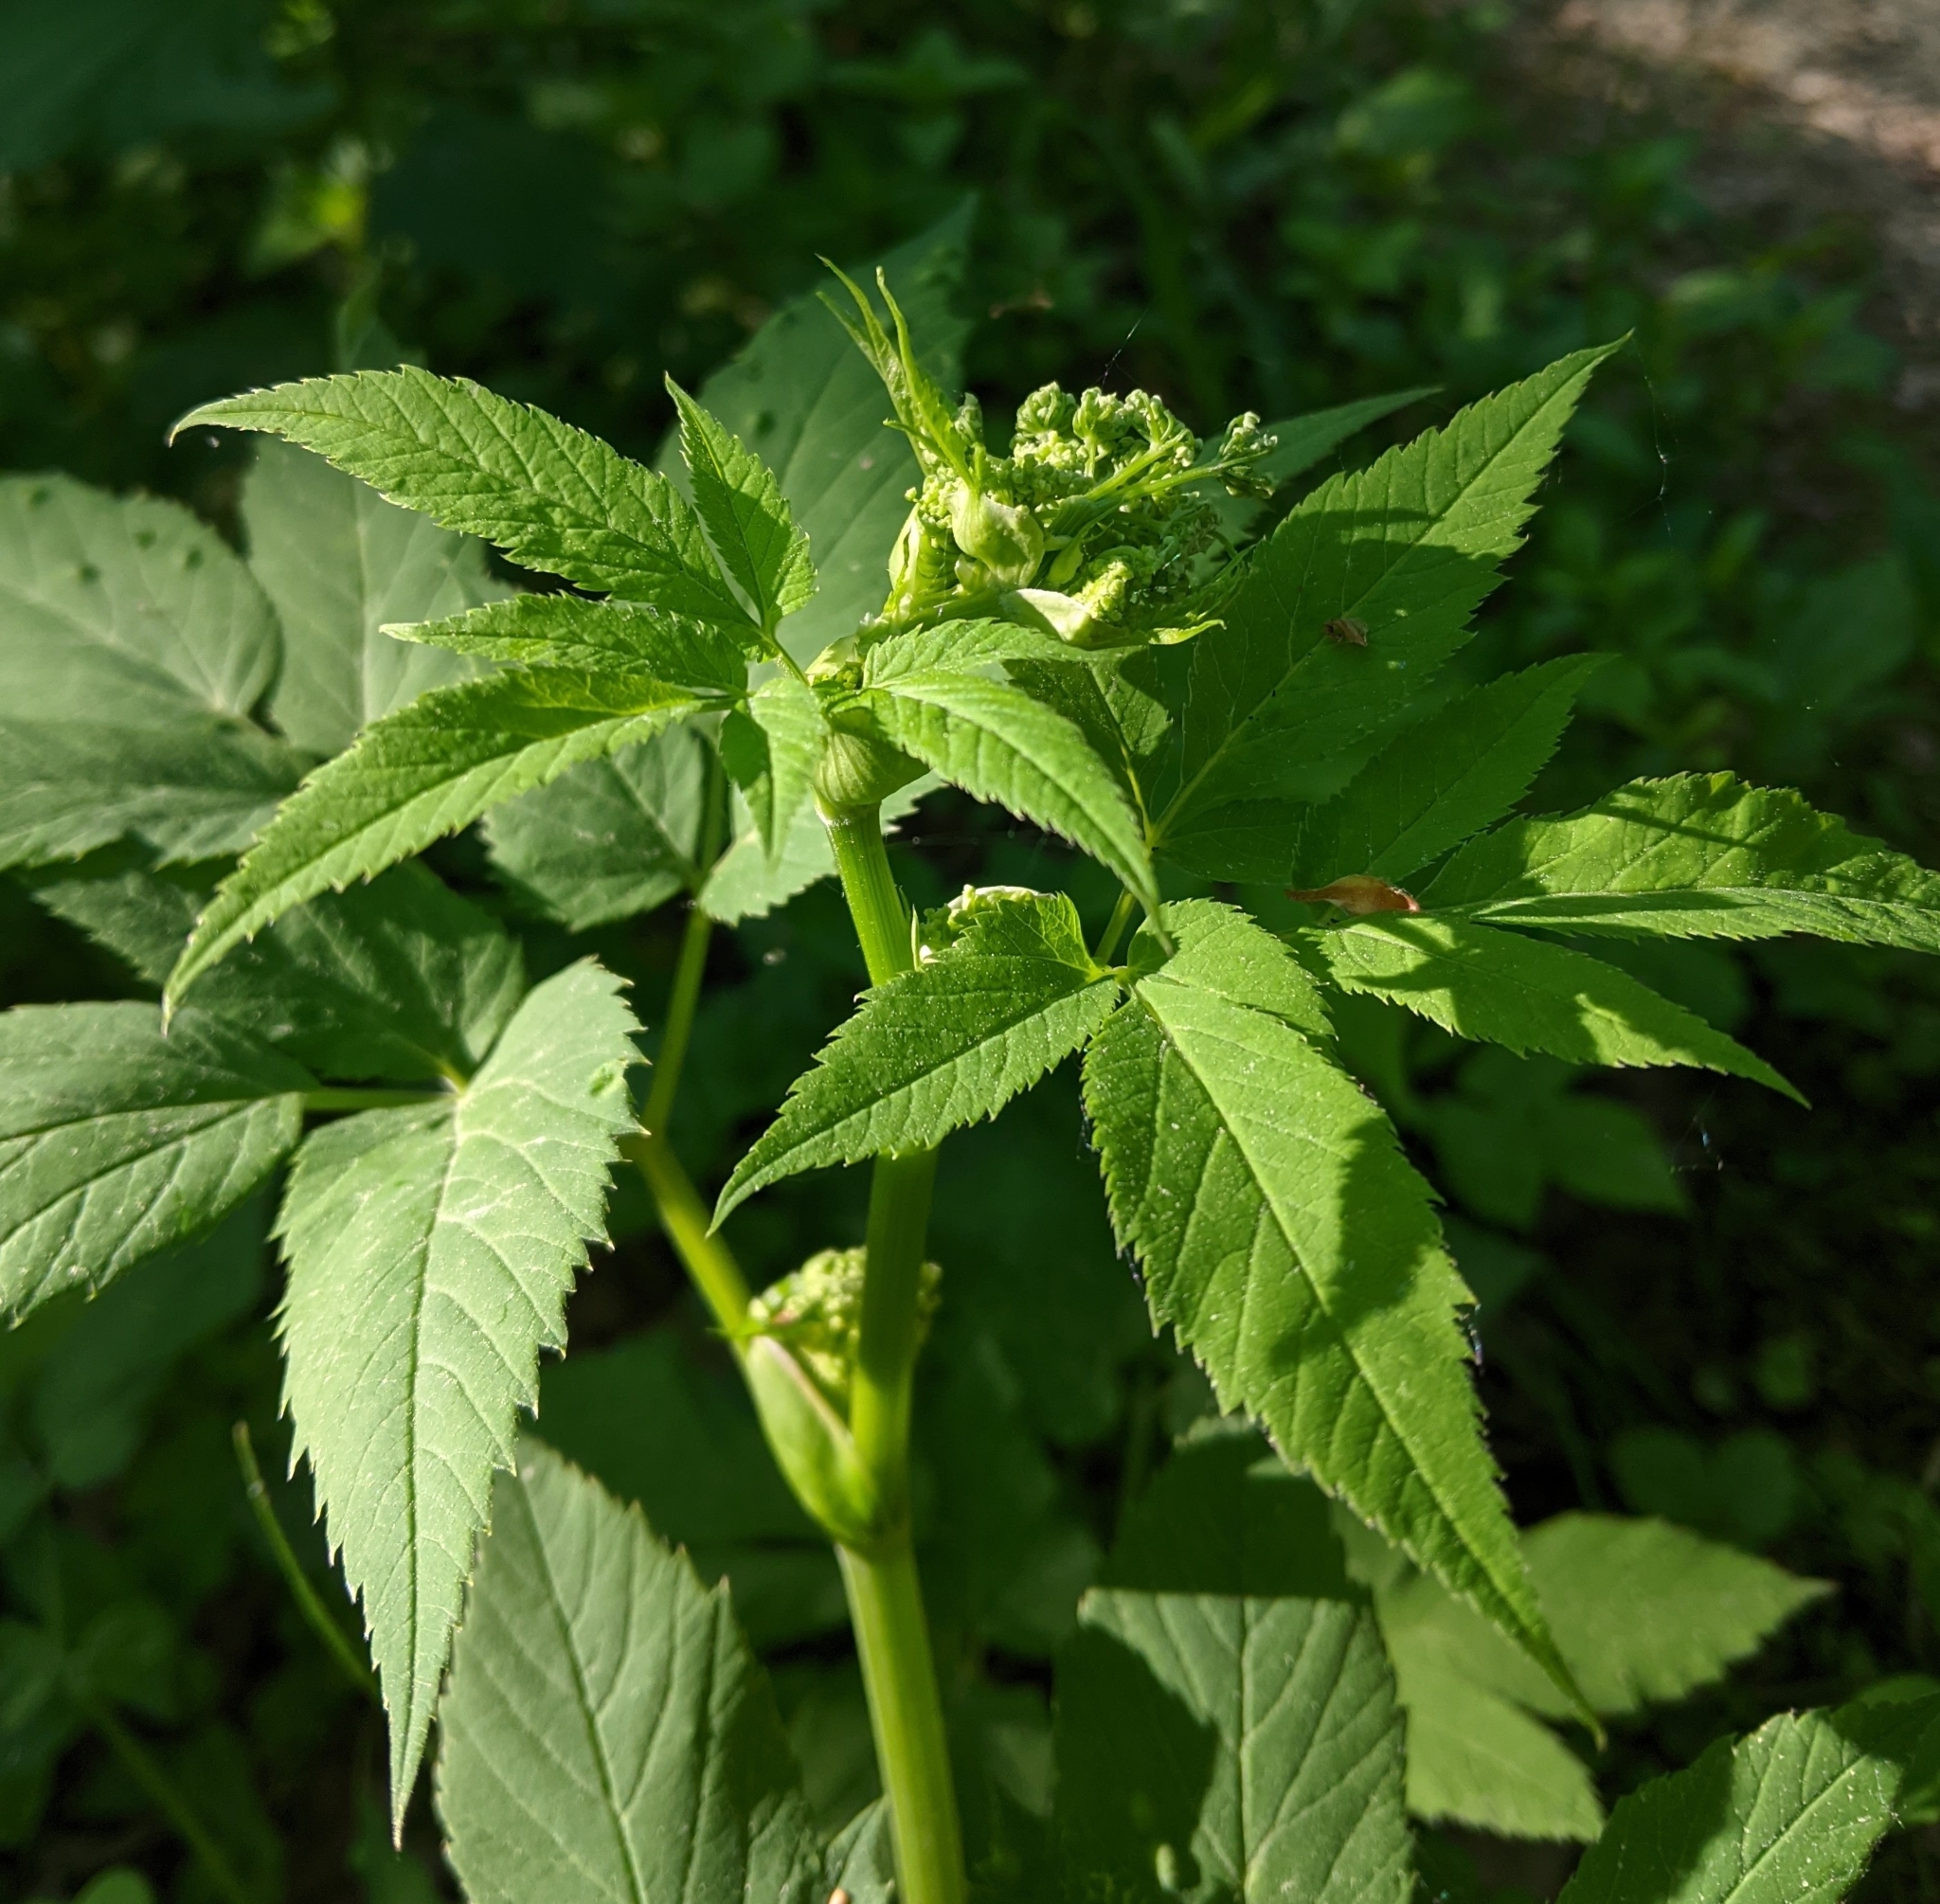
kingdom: Plantae
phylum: Tracheophyta
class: Magnoliopsida
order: Apiales
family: Apiaceae
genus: Aegopodium
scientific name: Aegopodium podagraria
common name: Ground-elder
